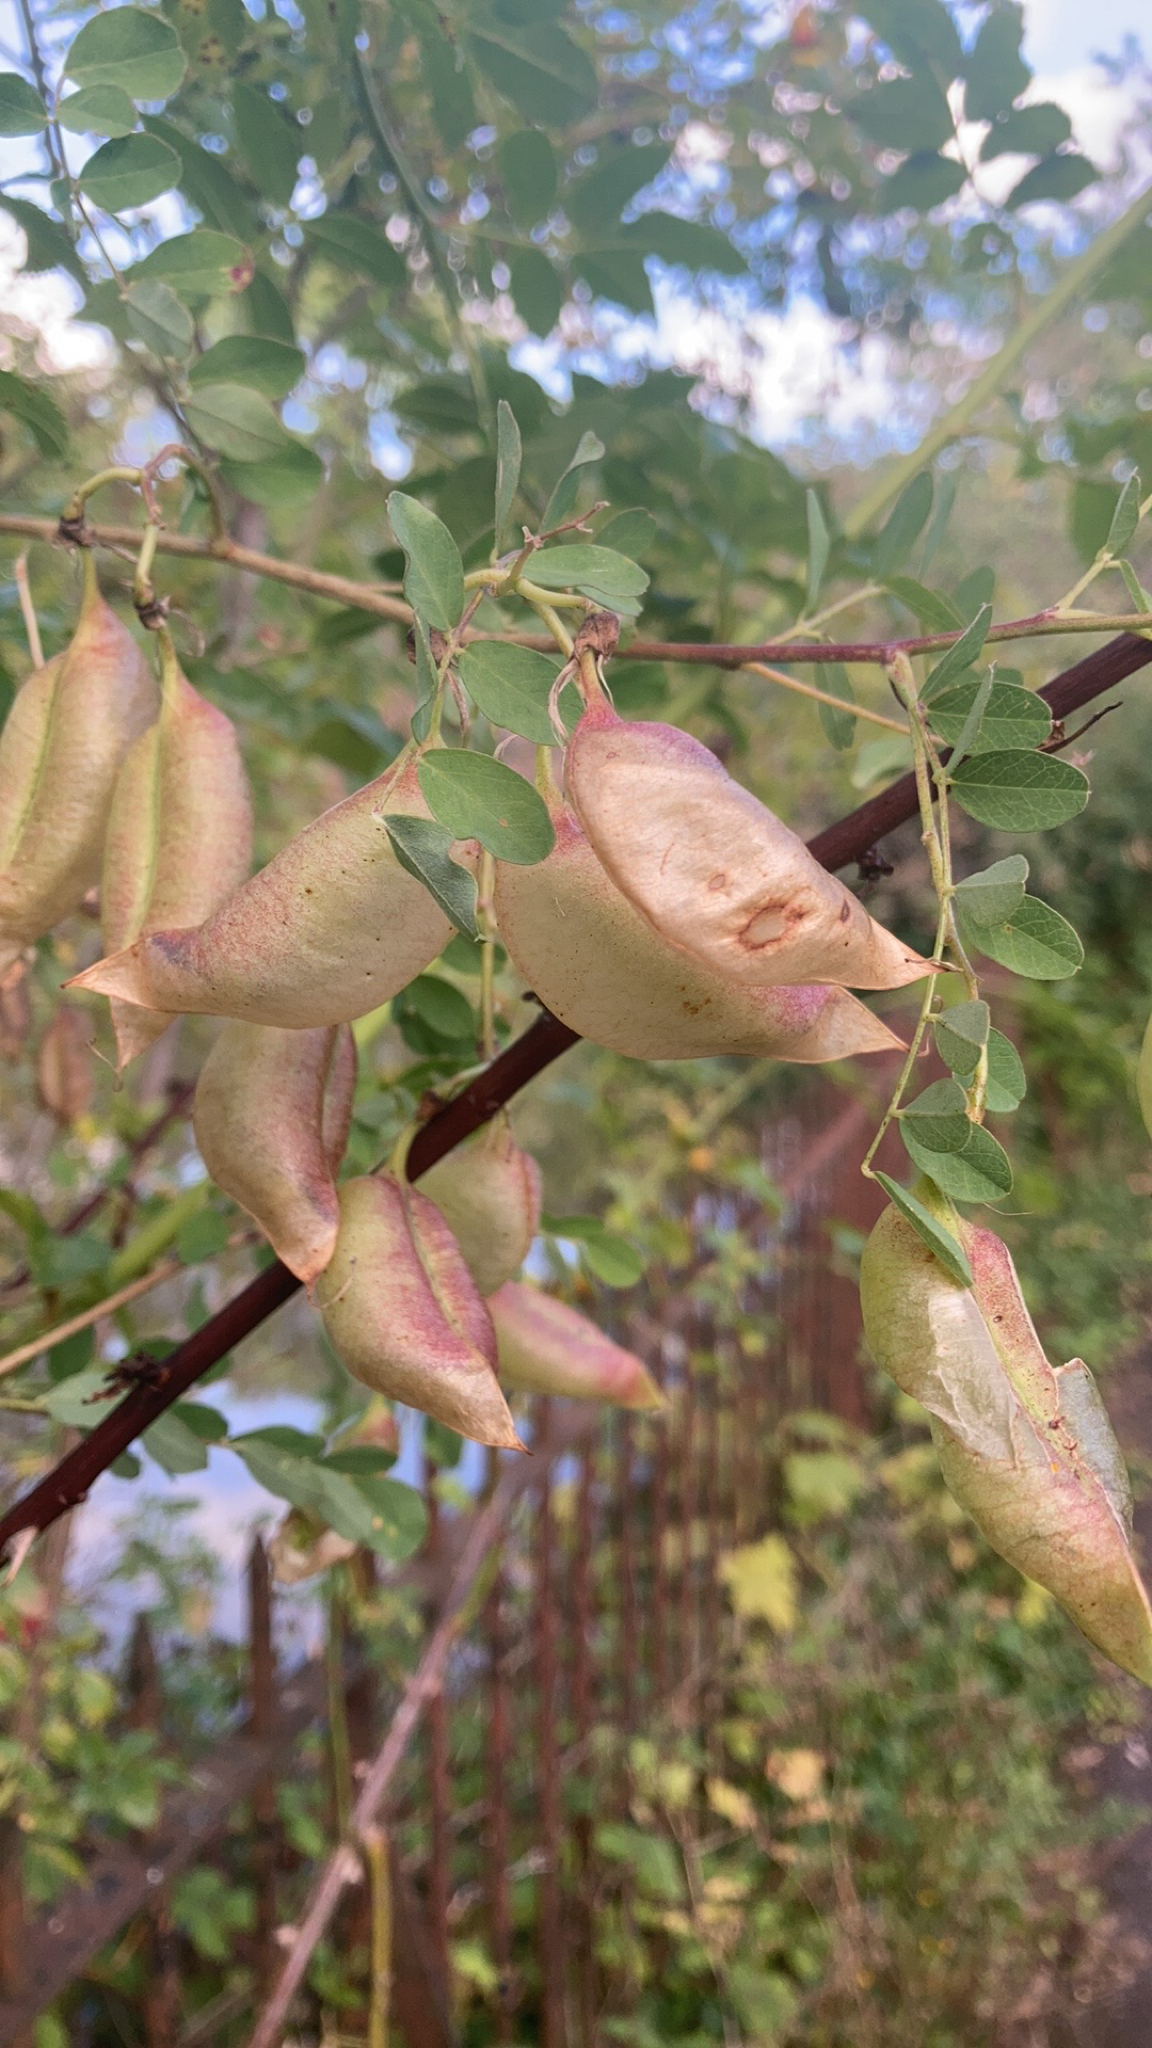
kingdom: Plantae
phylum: Tracheophyta
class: Magnoliopsida
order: Fabales
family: Fabaceae
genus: Colutea
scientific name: Colutea arborescens
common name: Bladder-senna
